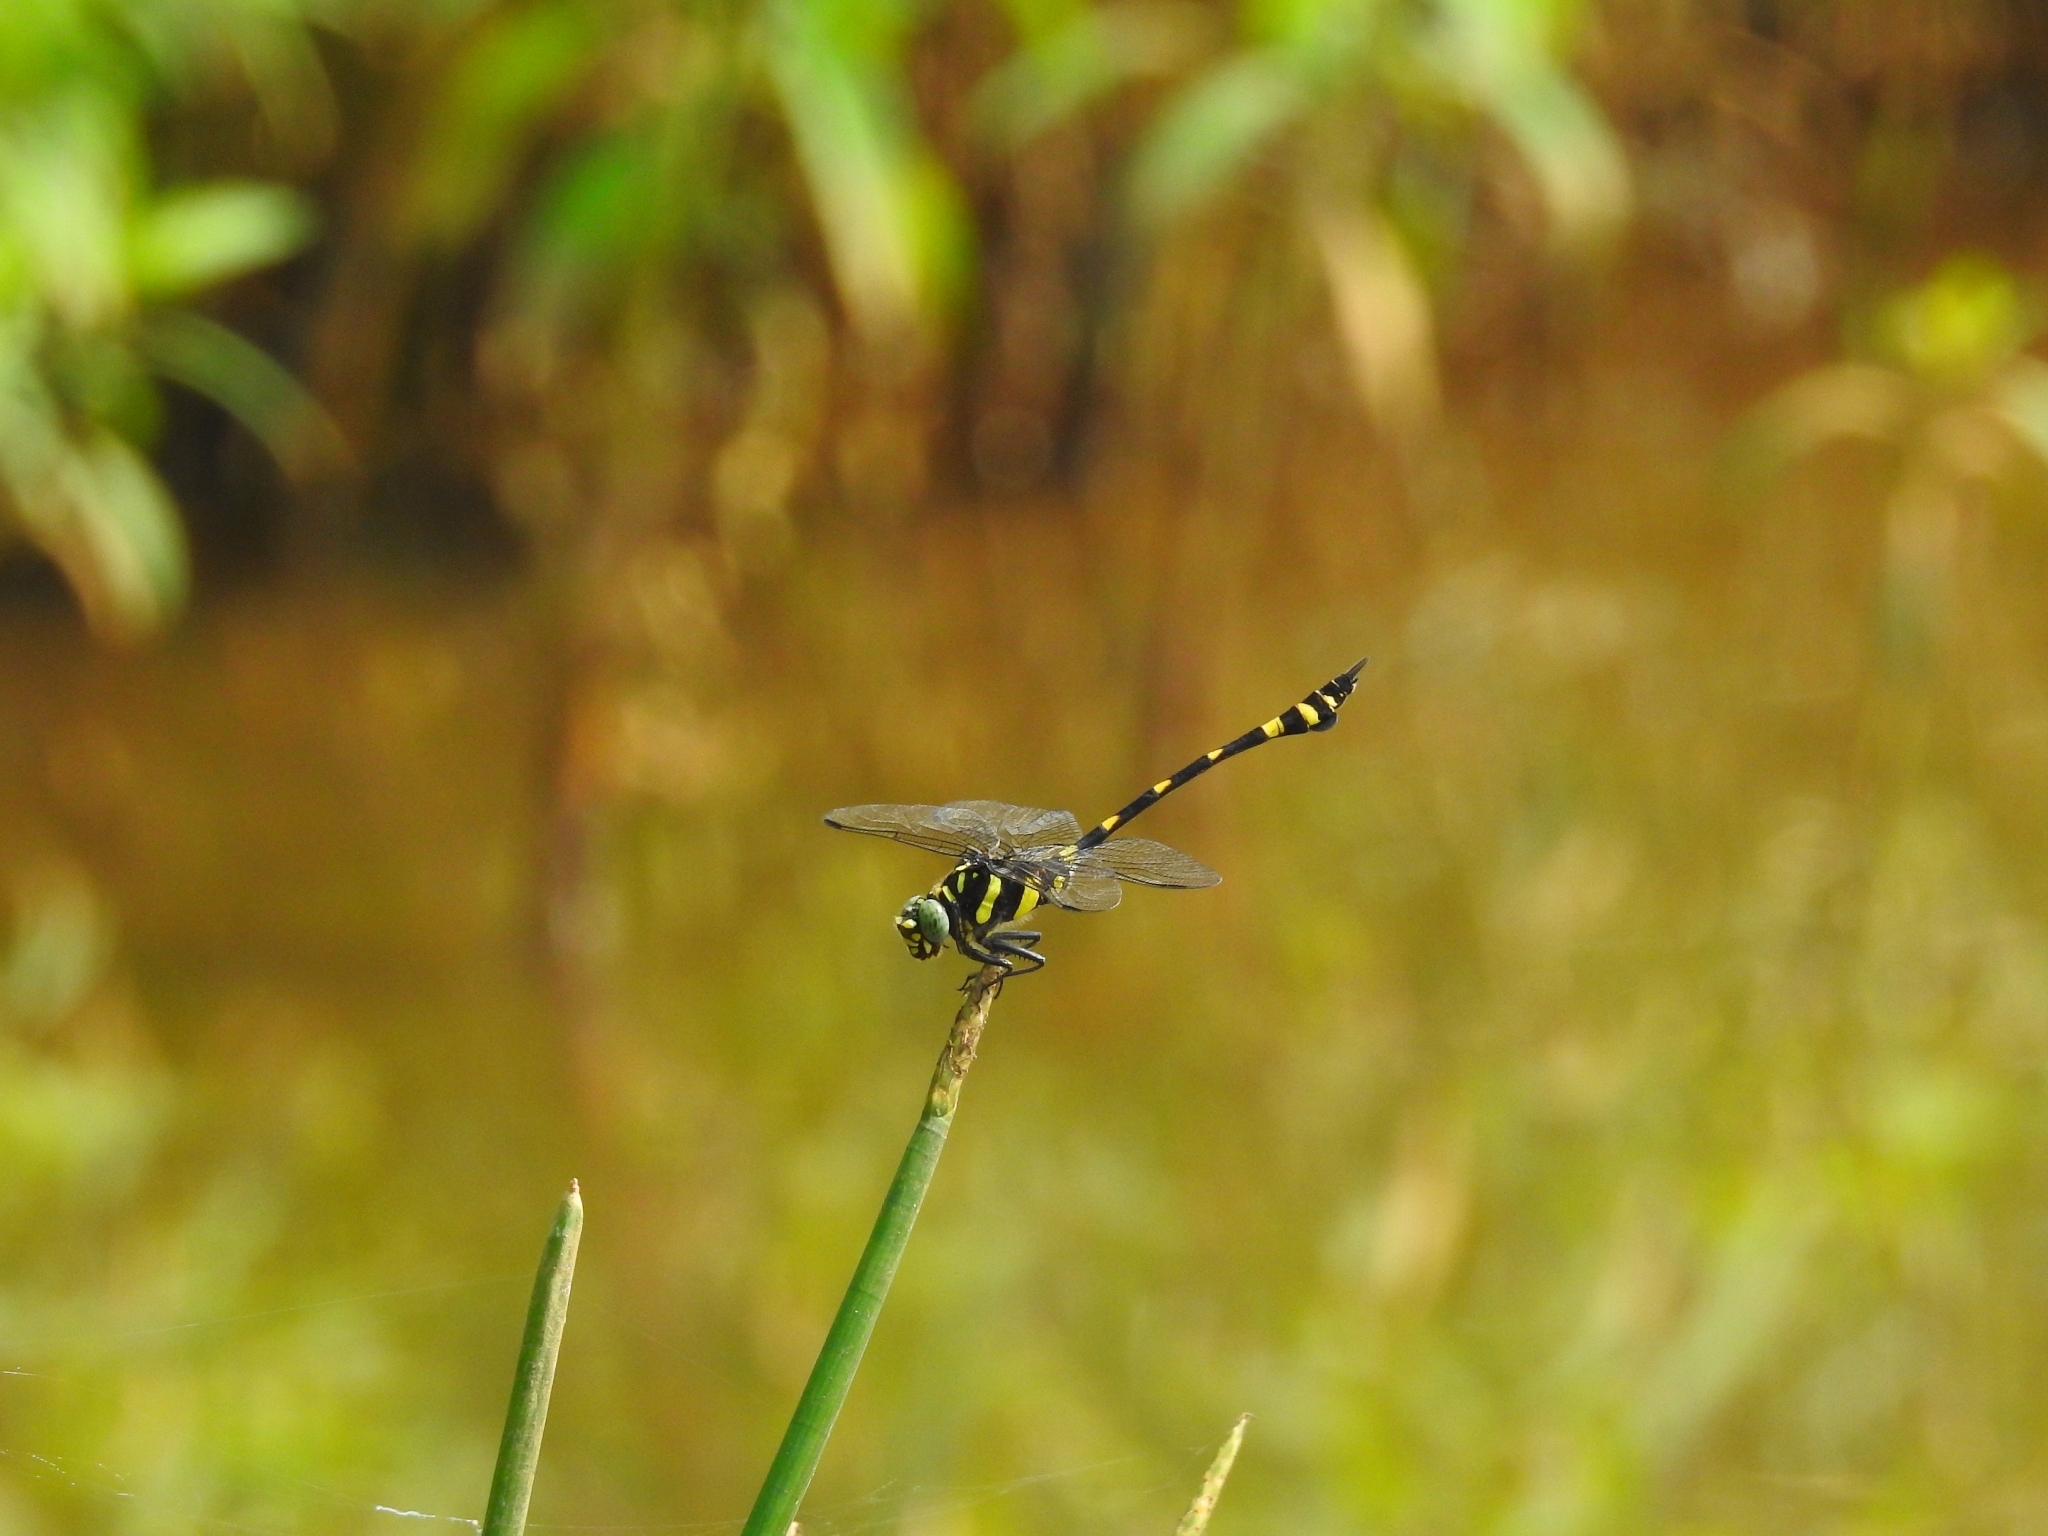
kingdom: Animalia
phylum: Arthropoda
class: Insecta
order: Odonata
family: Gomphidae
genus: Ictinogomphus
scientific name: Ictinogomphus rapax
